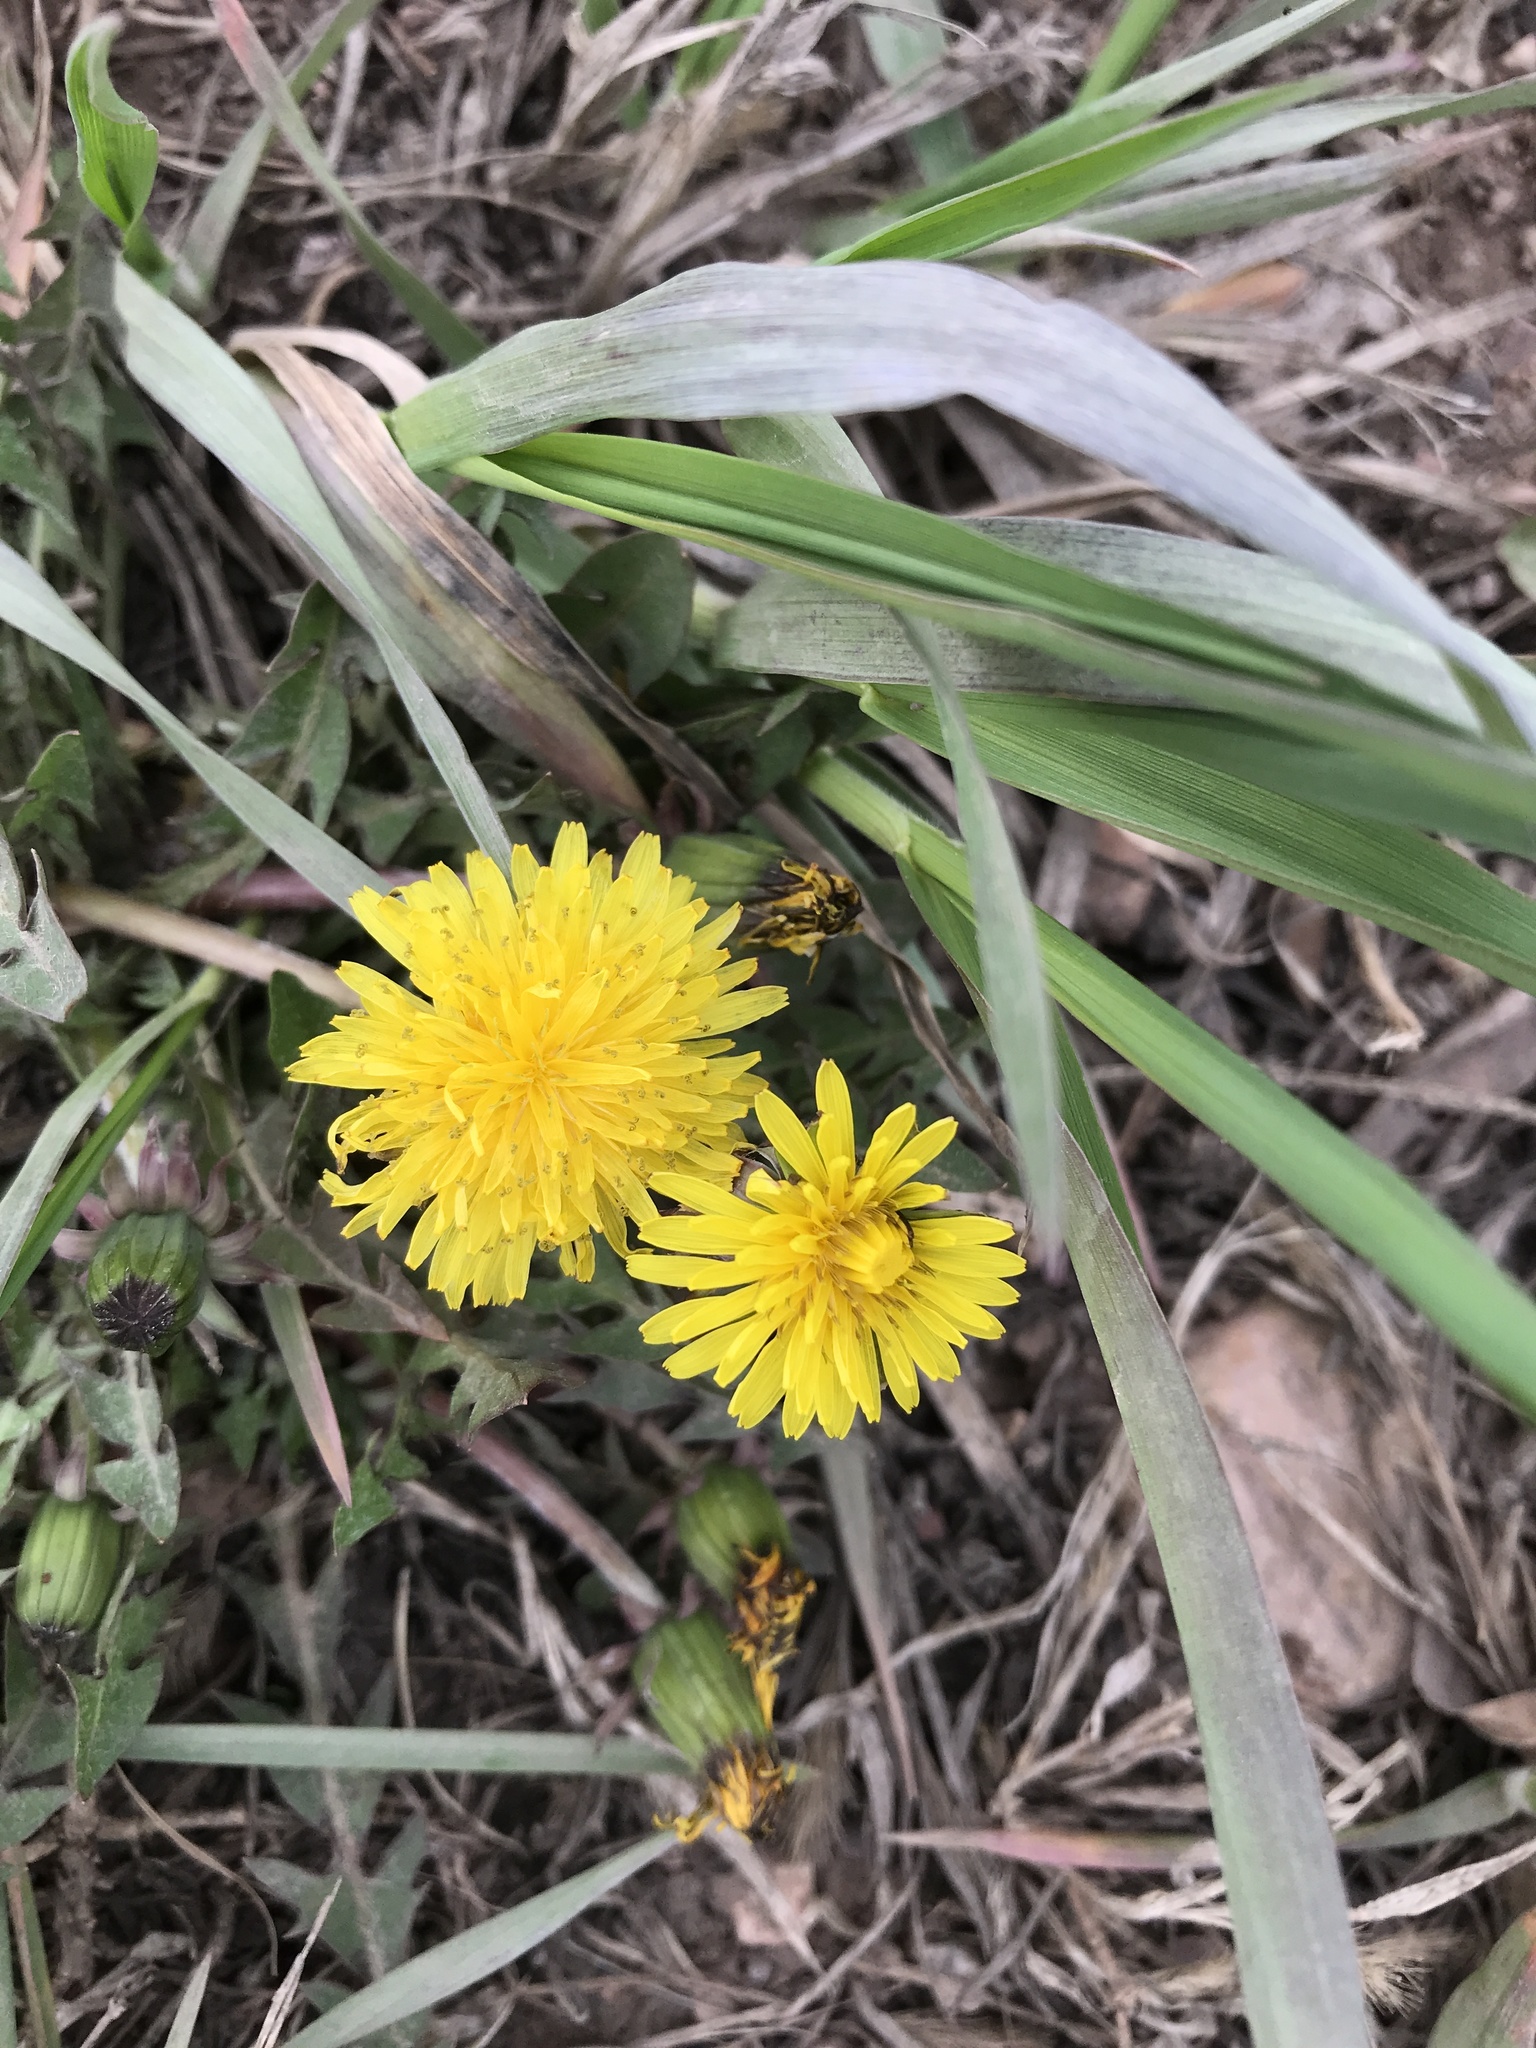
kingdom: Plantae
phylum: Tracheophyta
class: Magnoliopsida
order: Asterales
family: Asteraceae
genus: Taraxacum
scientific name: Taraxacum officinale
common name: Common dandelion
